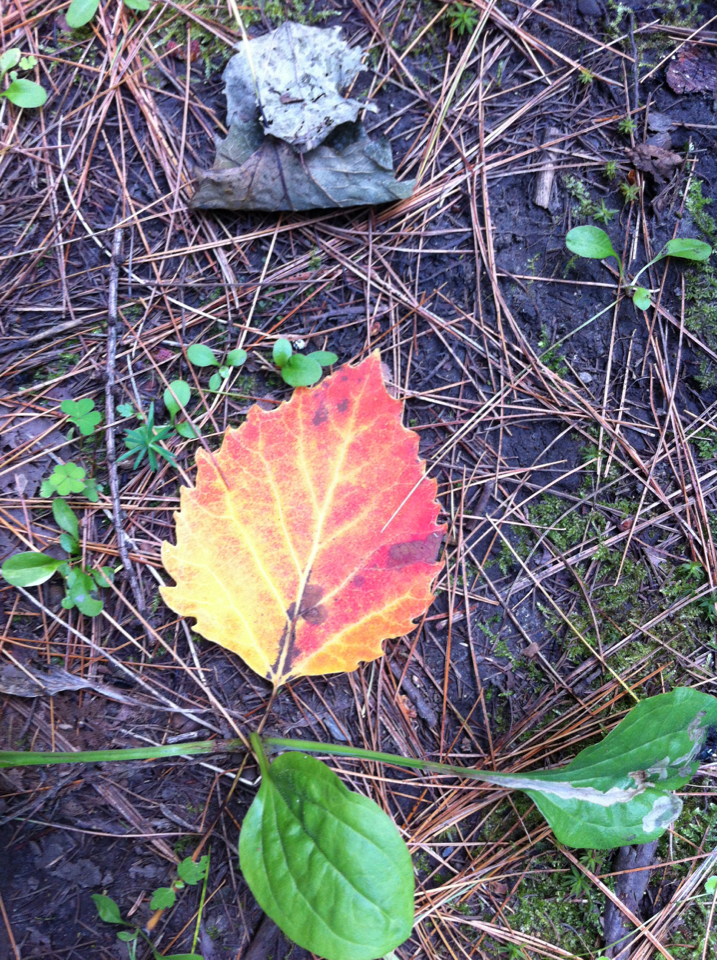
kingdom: Plantae
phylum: Tracheophyta
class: Magnoliopsida
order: Malpighiales
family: Salicaceae
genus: Populus
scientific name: Populus grandidentata
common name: Bigtooth aspen
